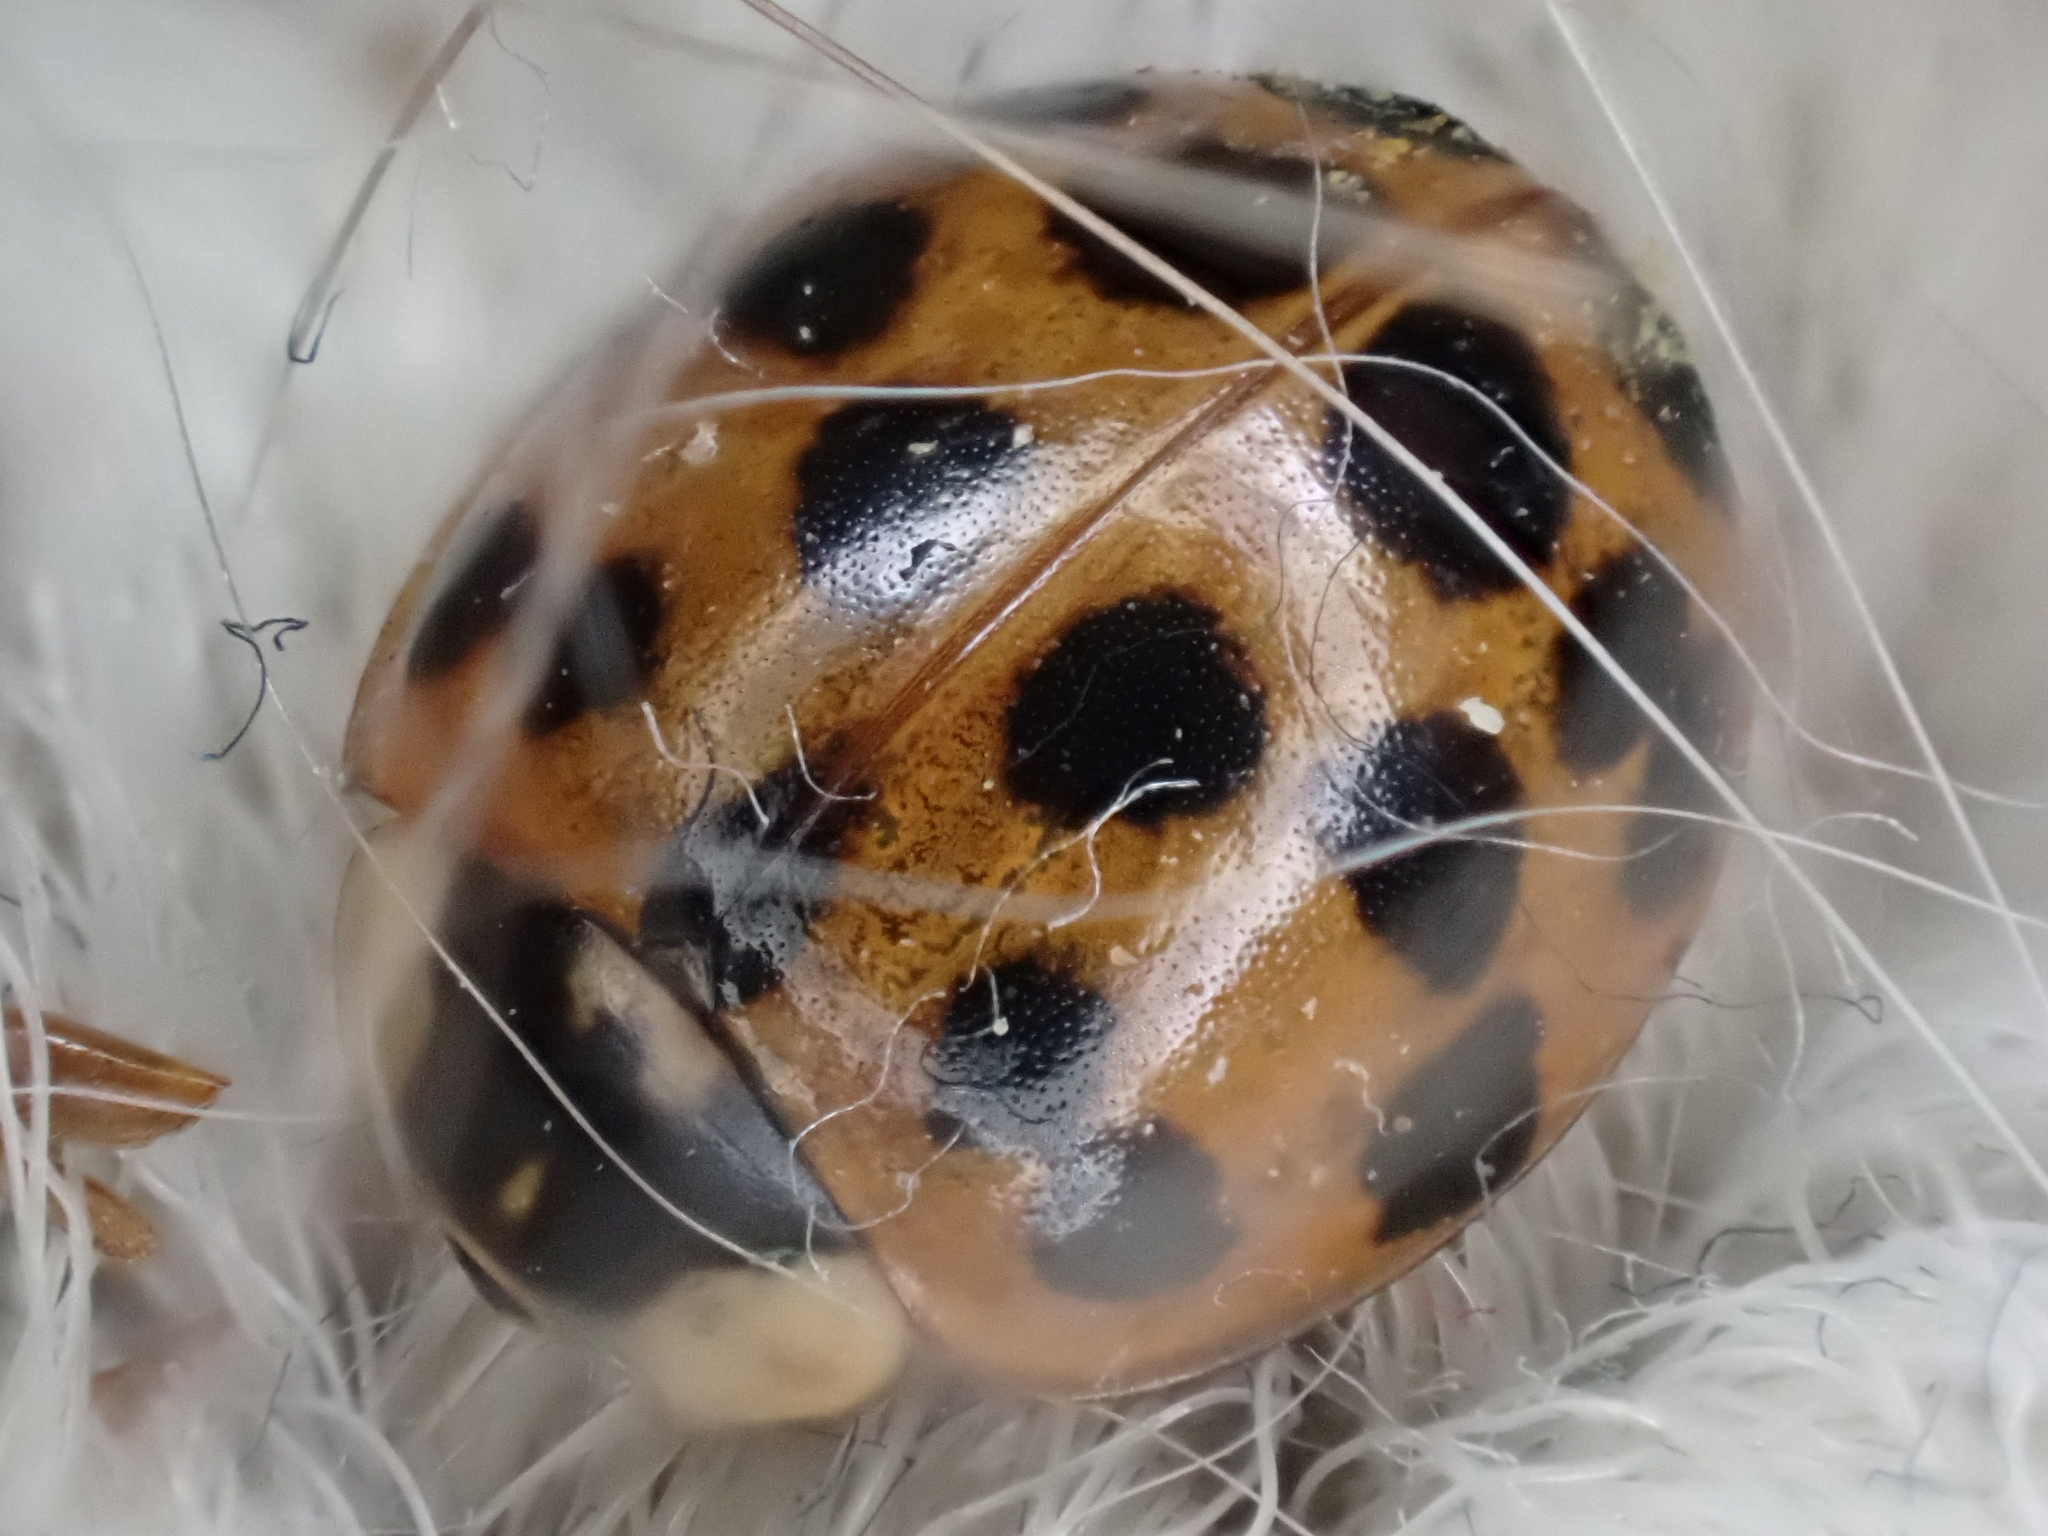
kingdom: Animalia
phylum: Arthropoda
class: Insecta
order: Coleoptera
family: Coccinellidae
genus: Harmonia
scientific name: Harmonia axyridis
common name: Harlequin ladybird
